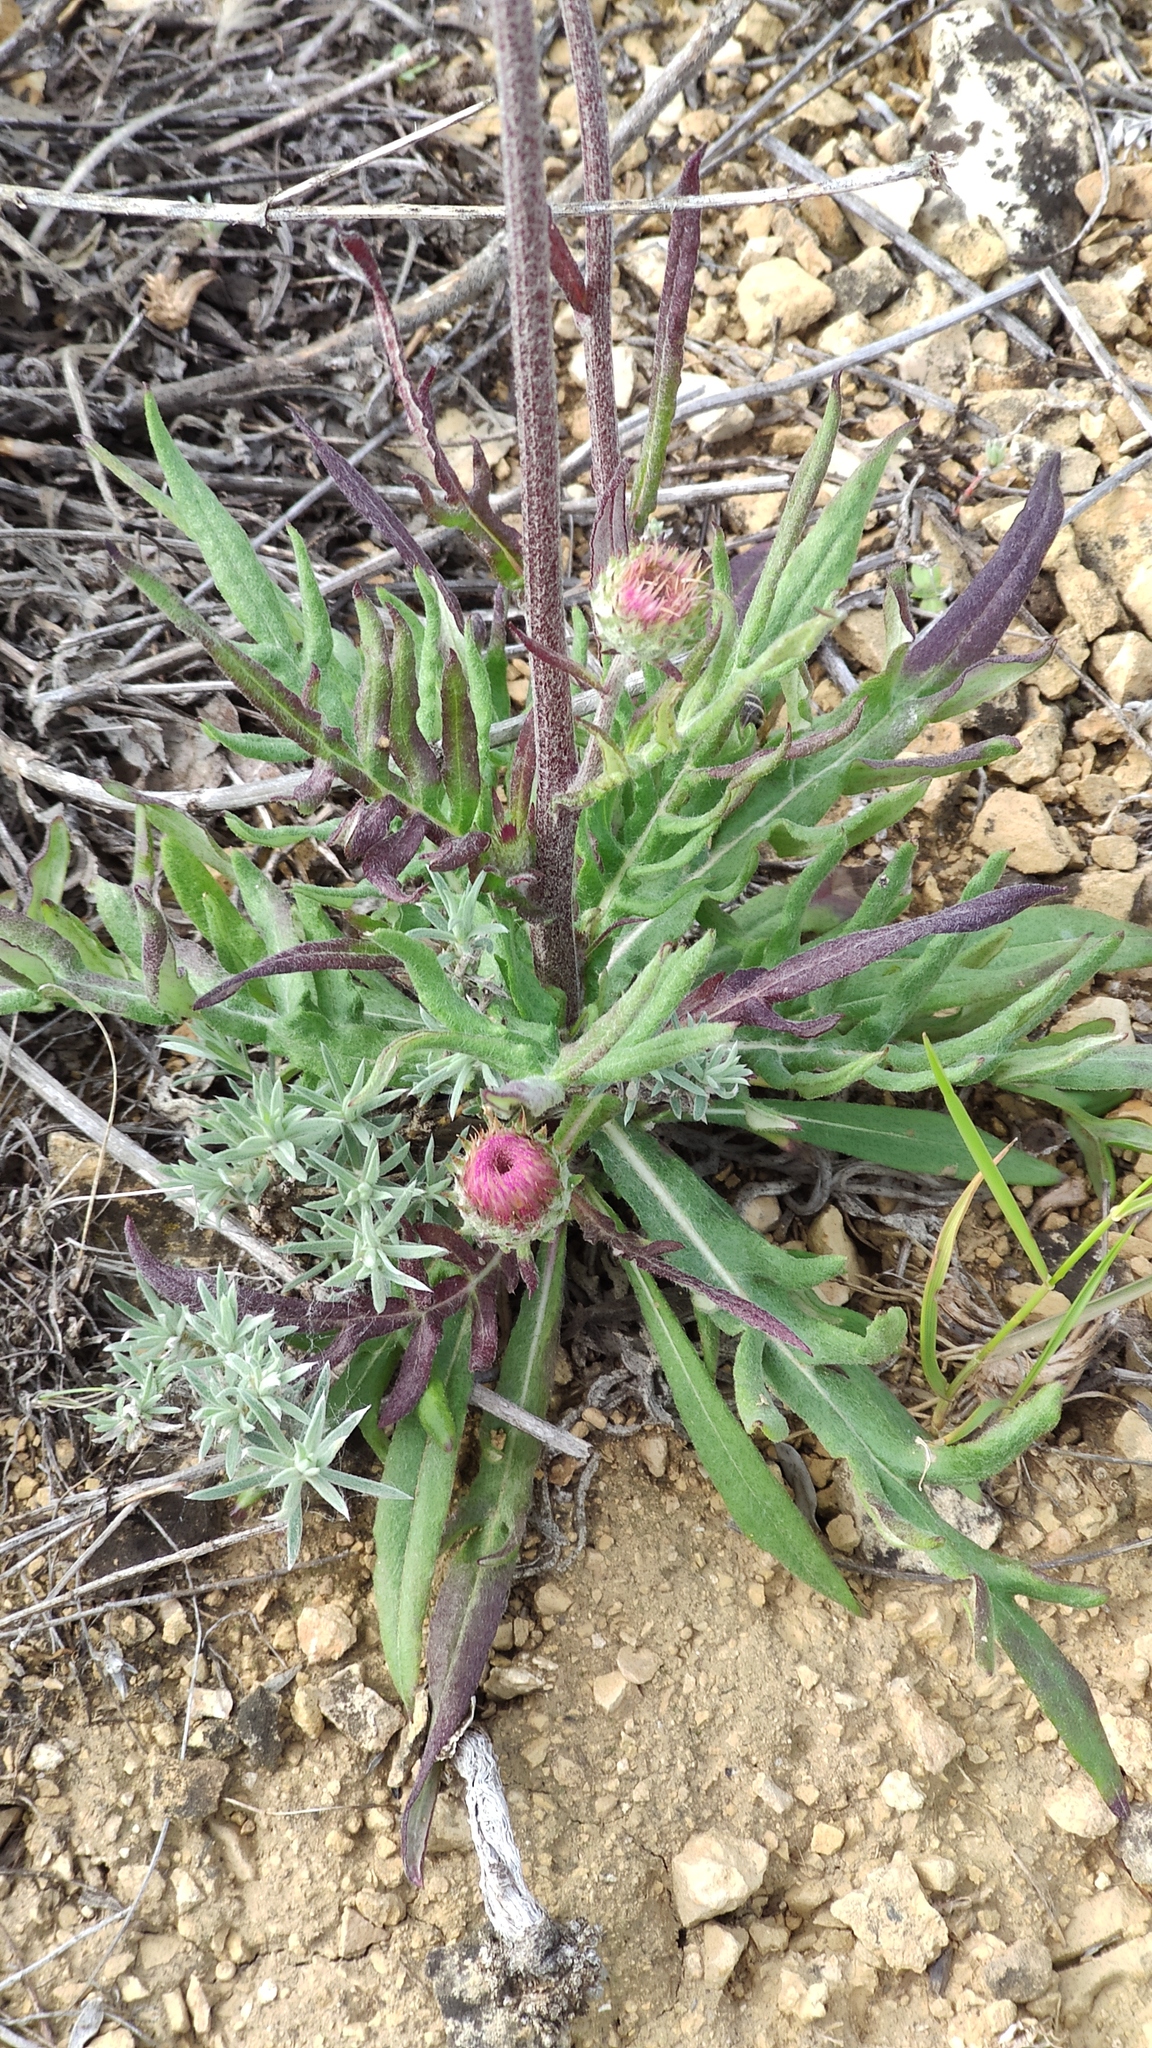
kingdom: Plantae
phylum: Tracheophyta
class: Magnoliopsida
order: Asterales
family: Asteraceae
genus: Jurinea
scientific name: Jurinea cyanoides
